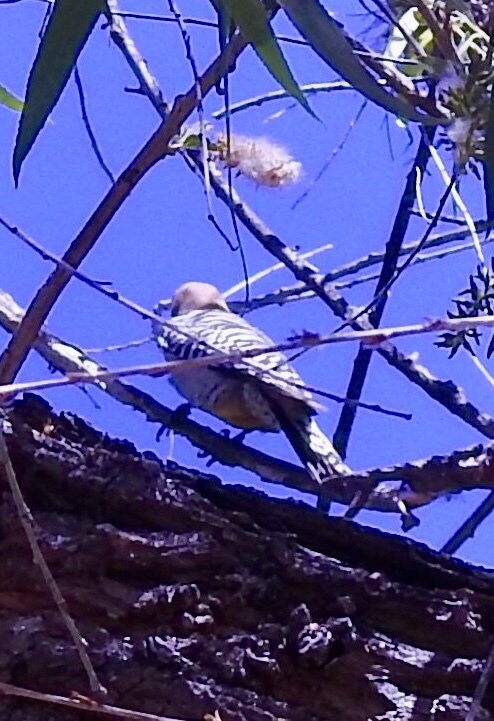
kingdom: Animalia
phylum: Chordata
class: Aves
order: Piciformes
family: Picidae
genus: Melanerpes
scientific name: Melanerpes uropygialis
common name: Gila woodpecker
